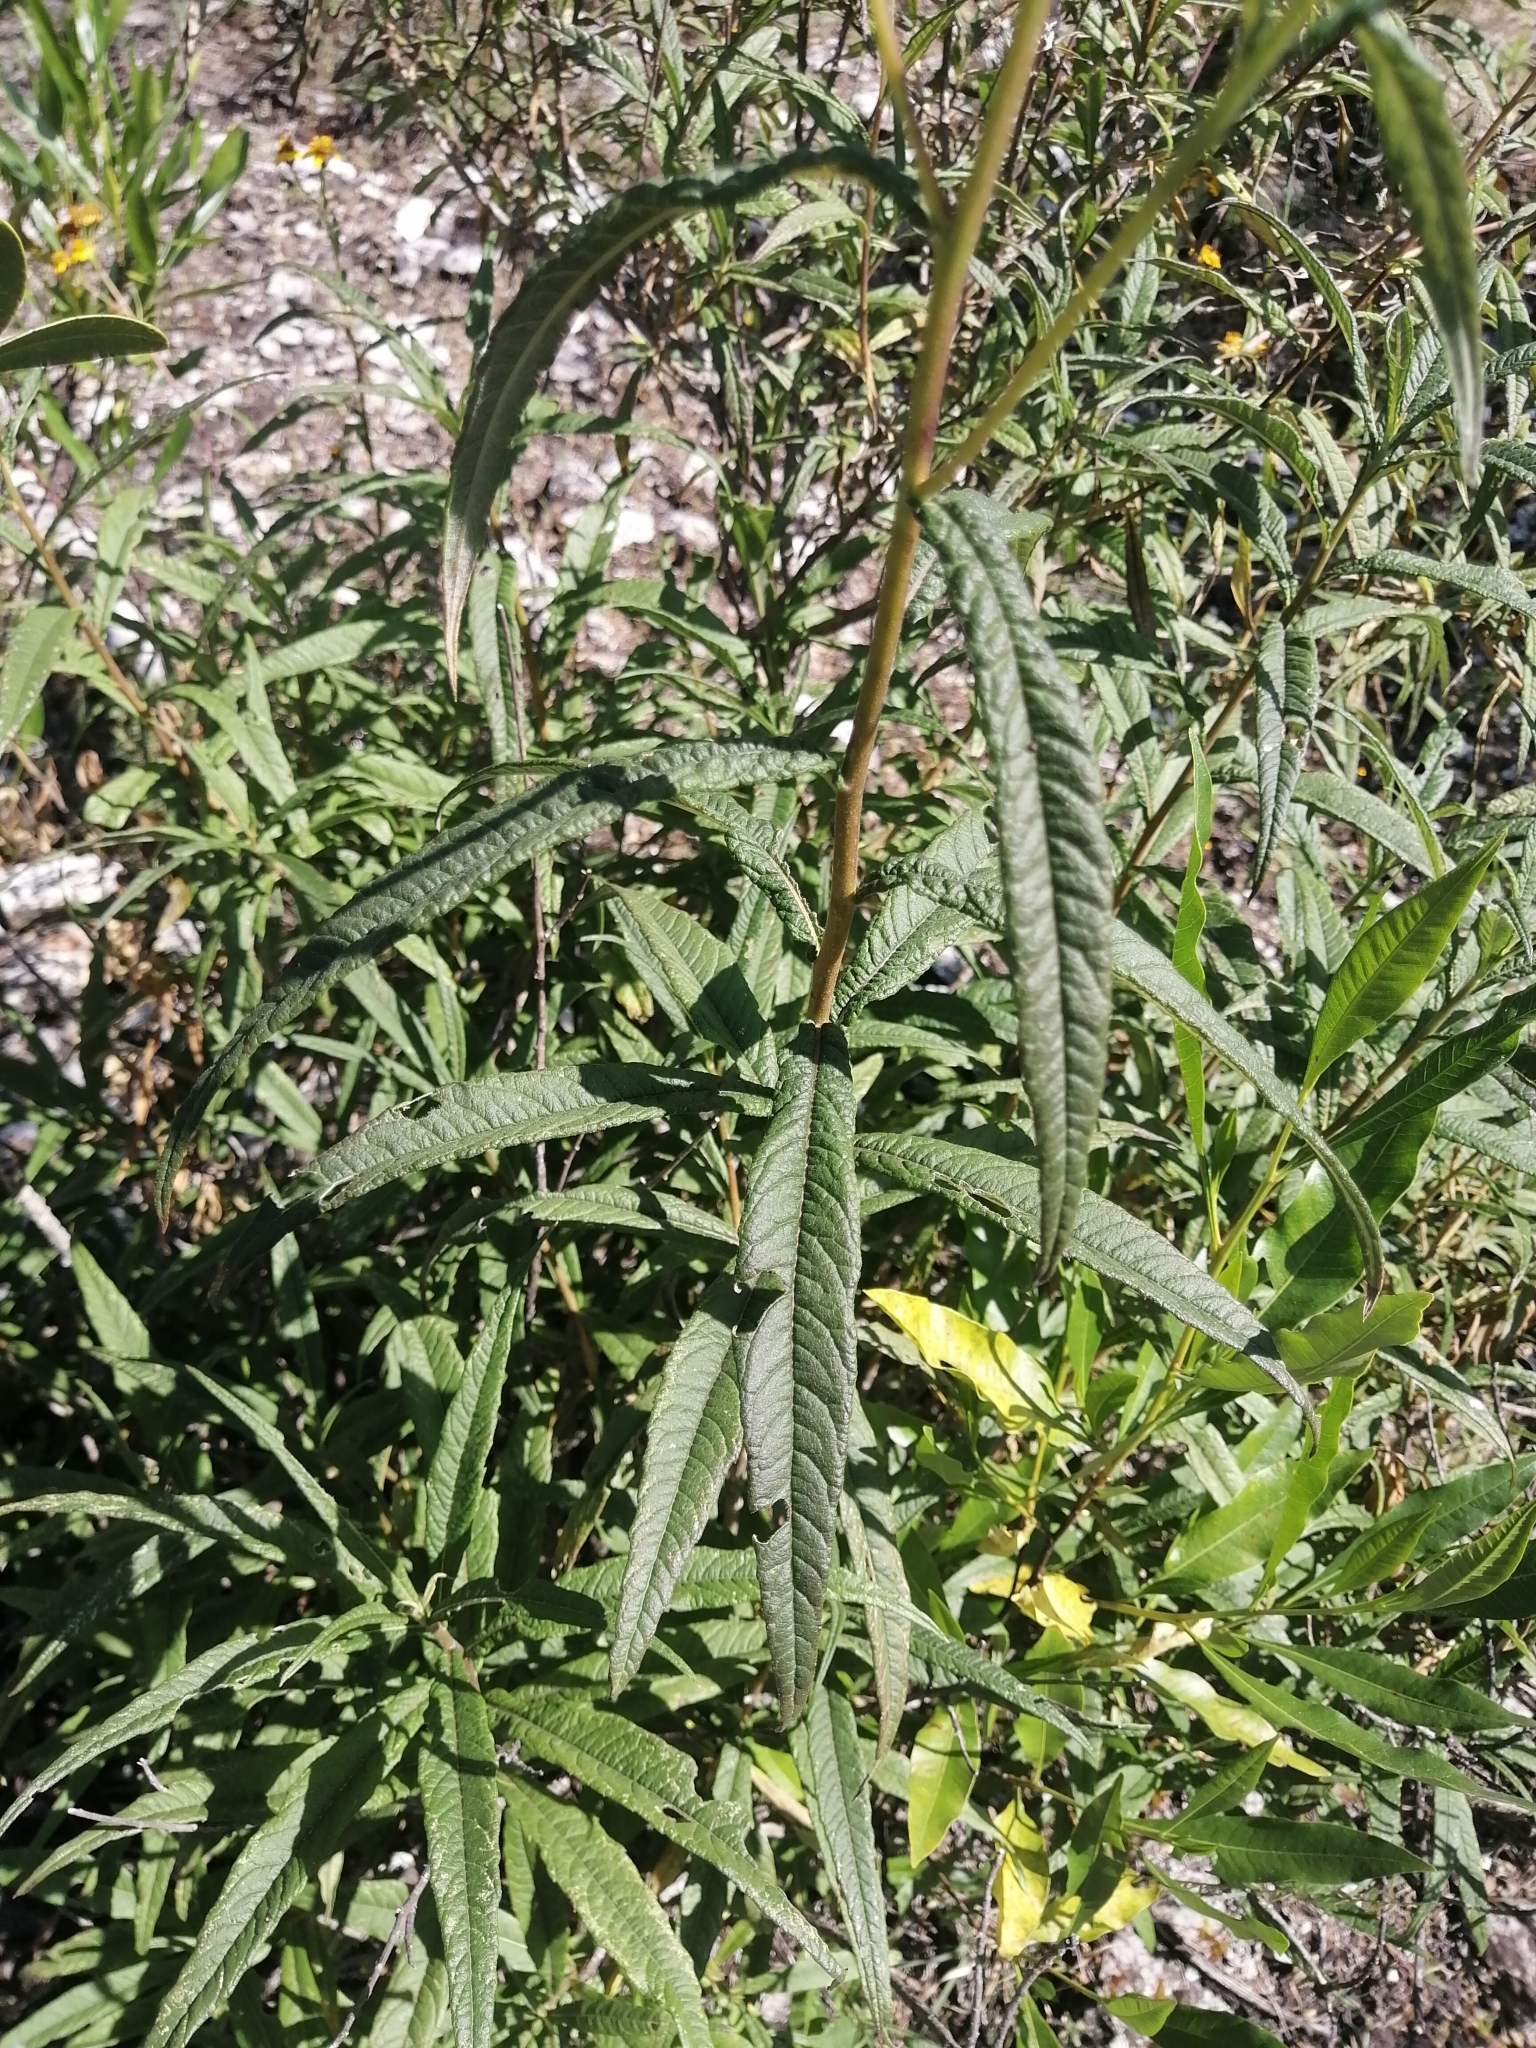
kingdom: Plantae
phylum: Tracheophyta
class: Magnoliopsida
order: Asterales
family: Asteraceae
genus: Verbesina
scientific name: Verbesina virgata
